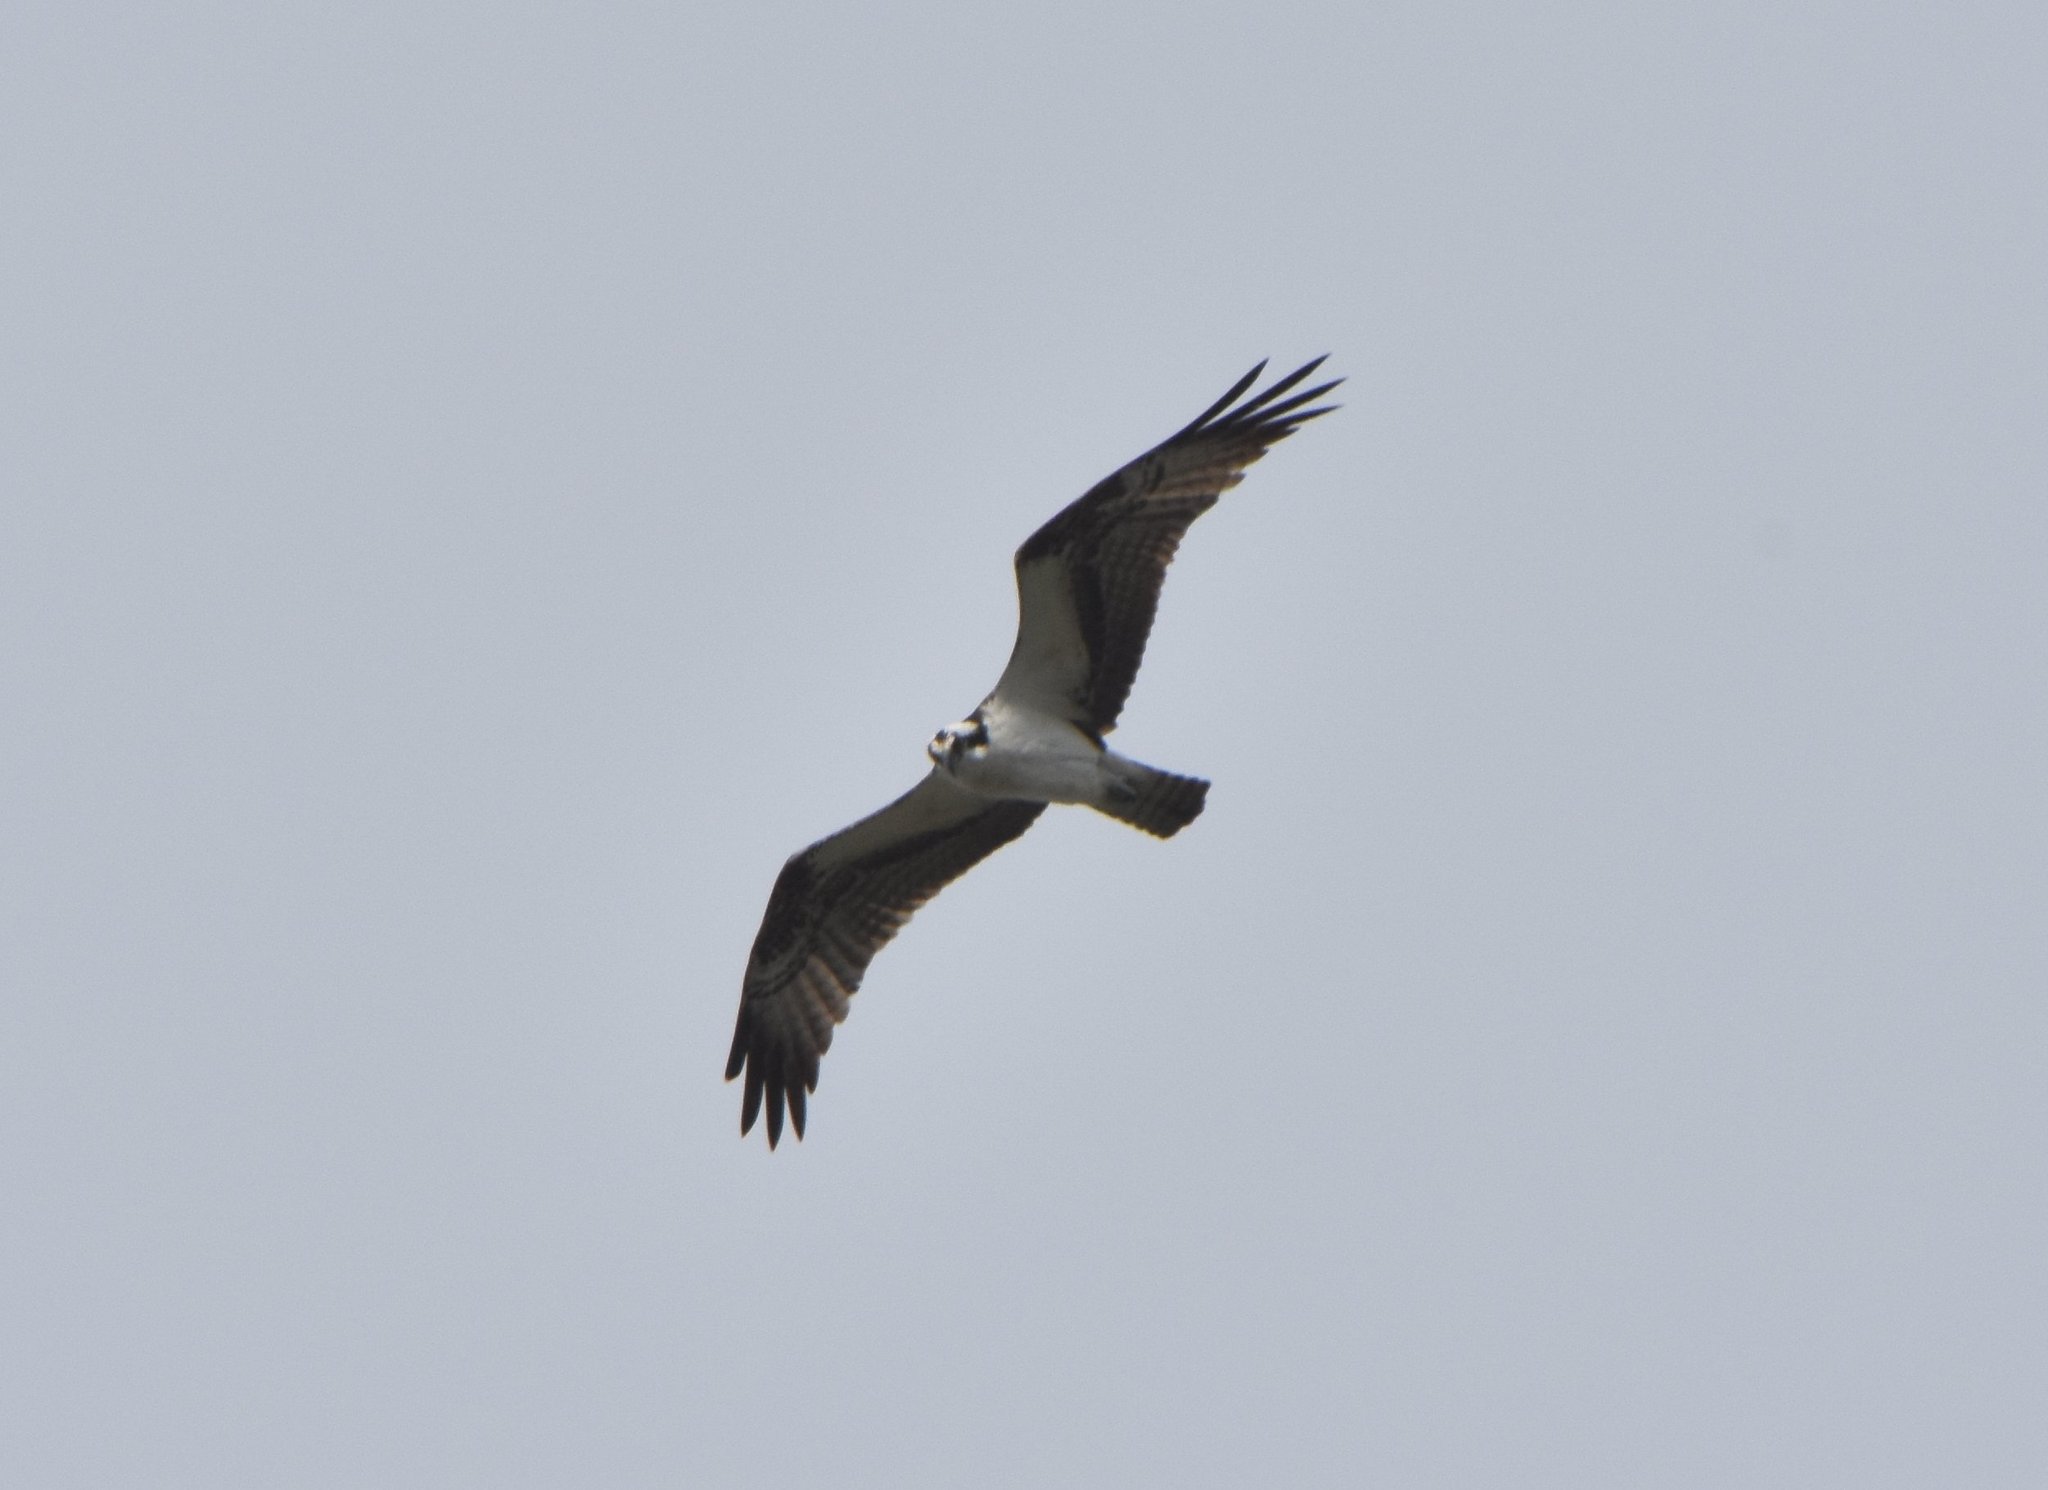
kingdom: Animalia
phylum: Chordata
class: Aves
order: Accipitriformes
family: Pandionidae
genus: Pandion
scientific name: Pandion haliaetus
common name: Osprey
